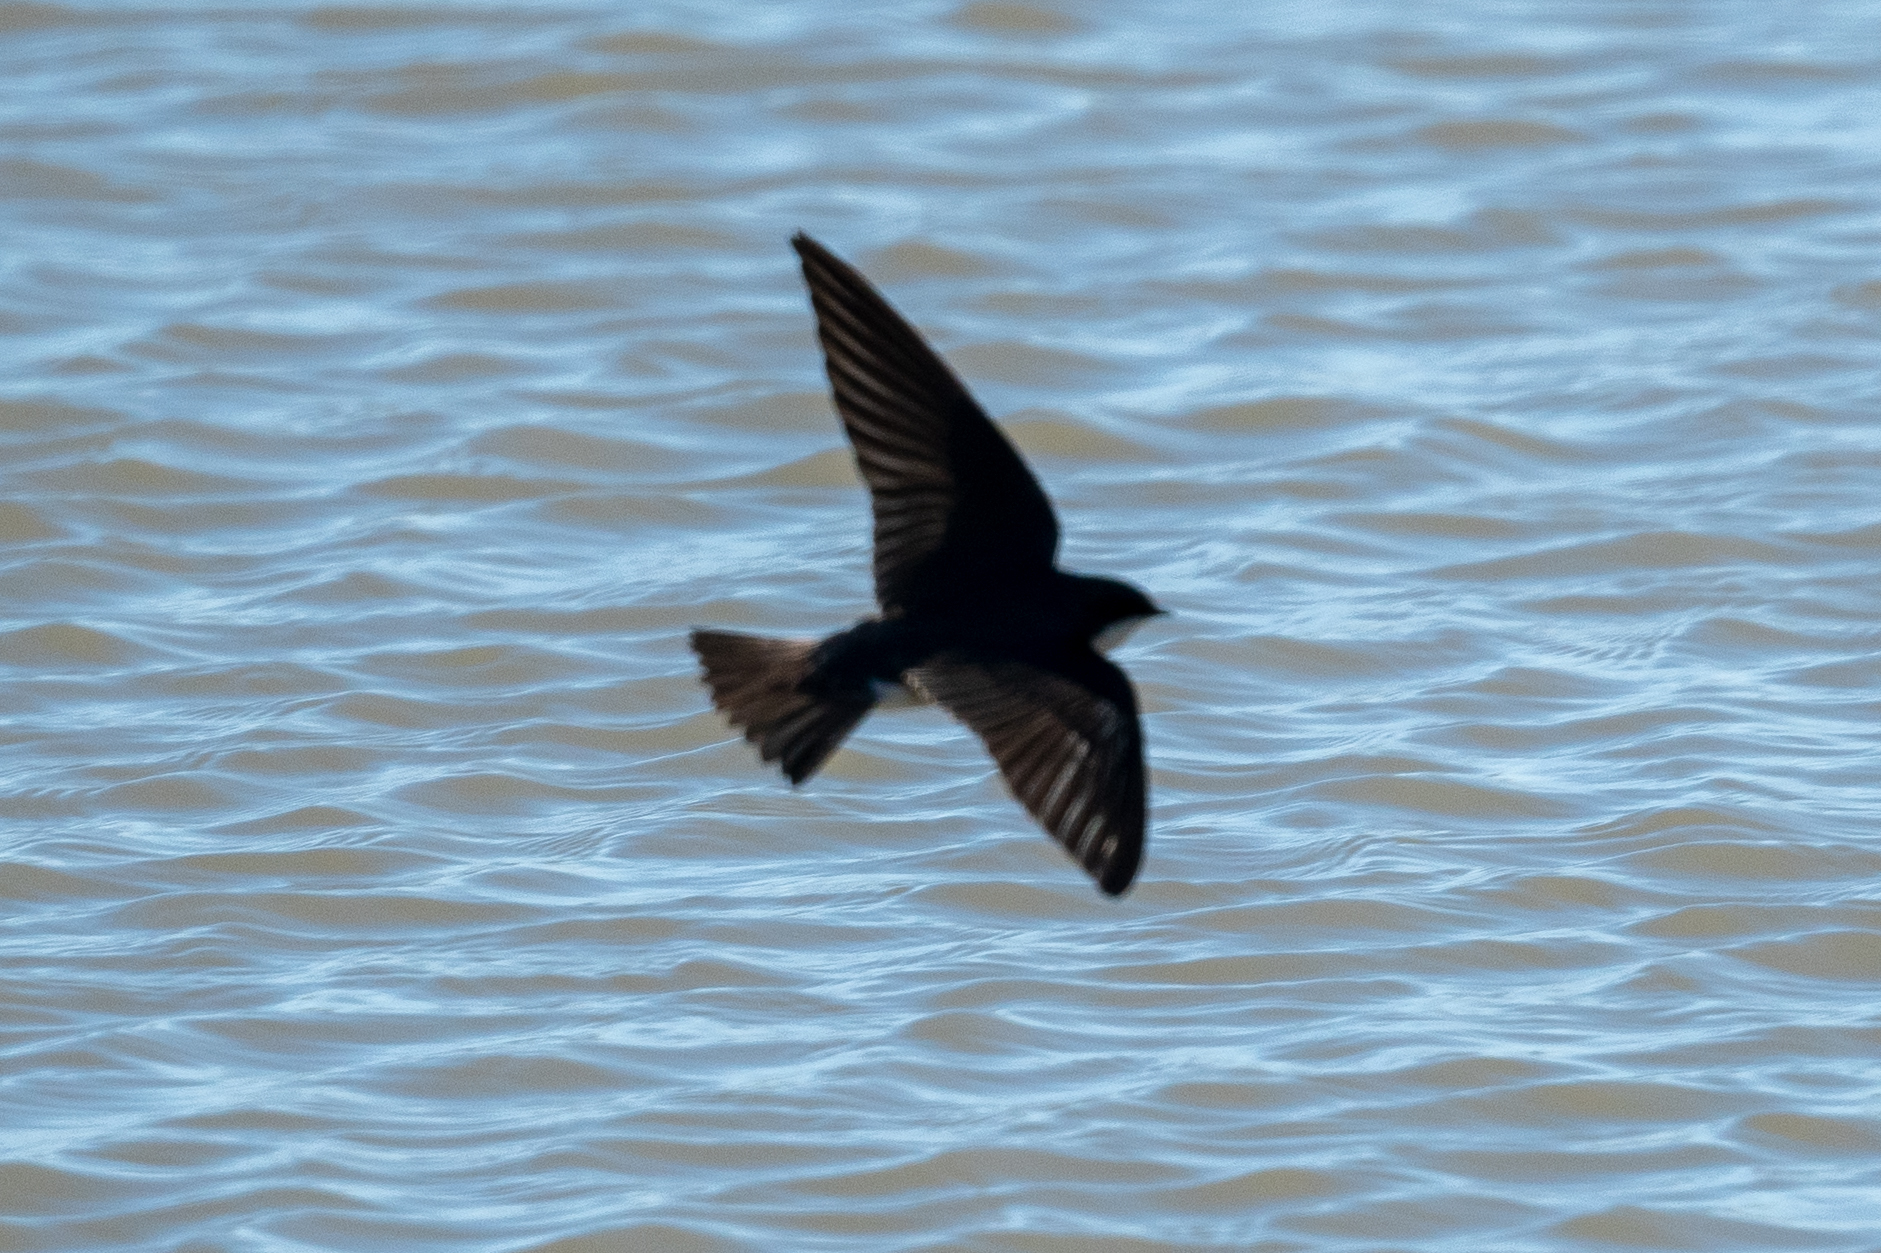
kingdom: Animalia
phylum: Chordata
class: Aves
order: Passeriformes
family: Hirundinidae
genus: Tachycineta
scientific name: Tachycineta bicolor
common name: Tree swallow
